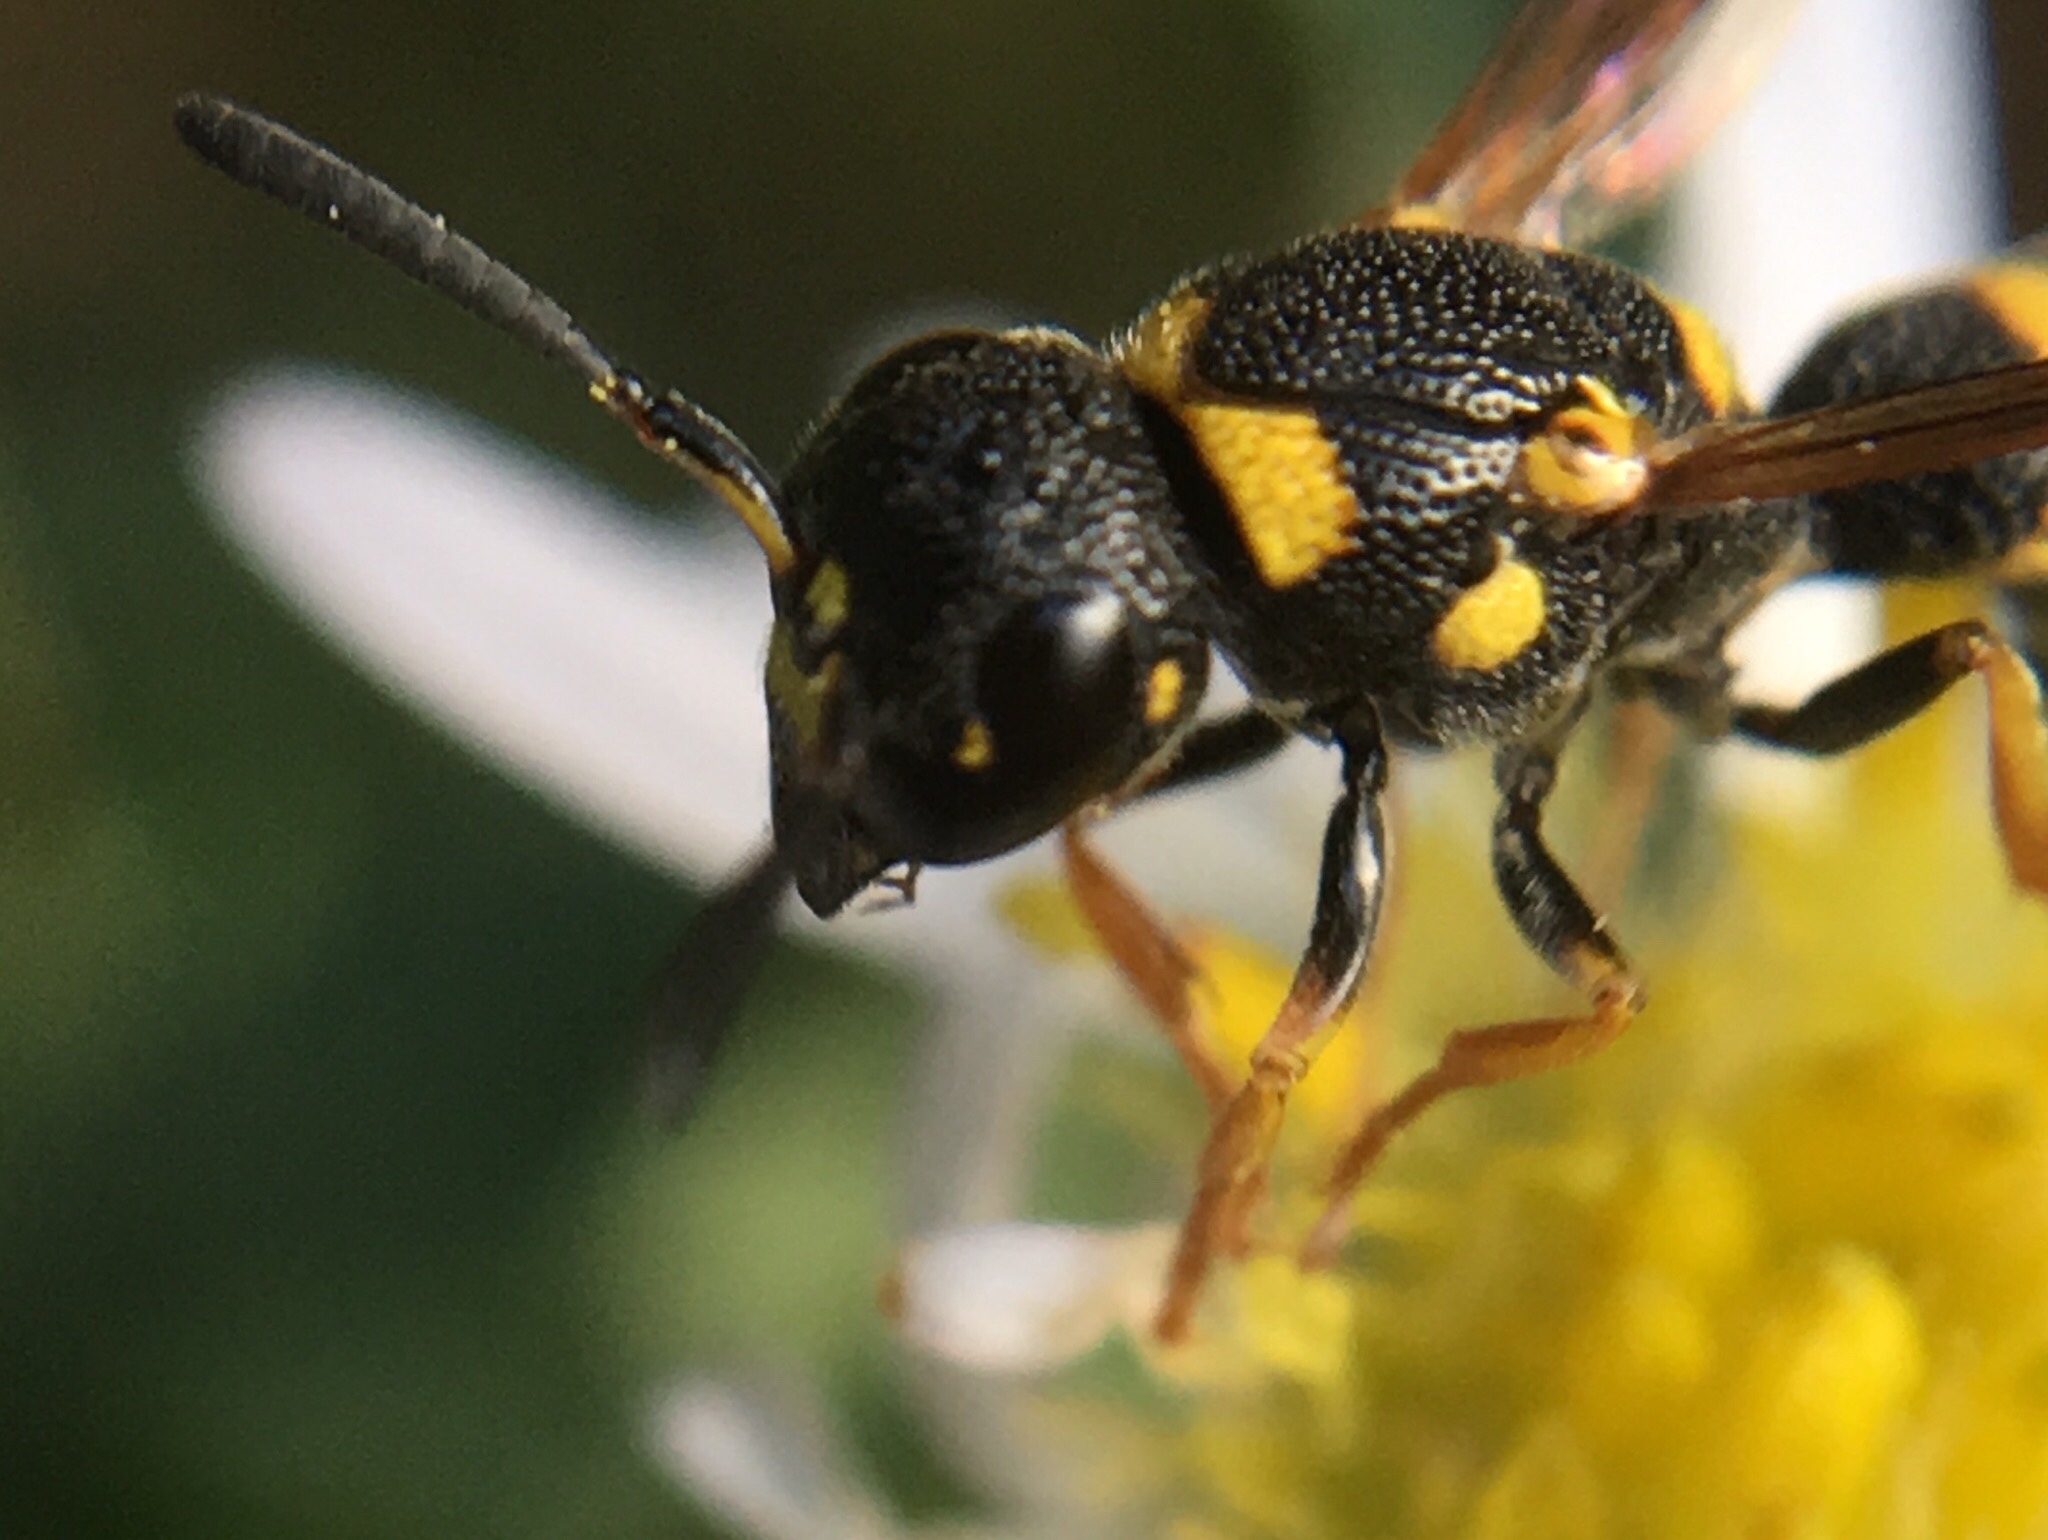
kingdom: Animalia
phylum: Arthropoda
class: Insecta
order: Hymenoptera
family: Eumenidae
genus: Parancistrocerus
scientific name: Parancistrocerus perennis
